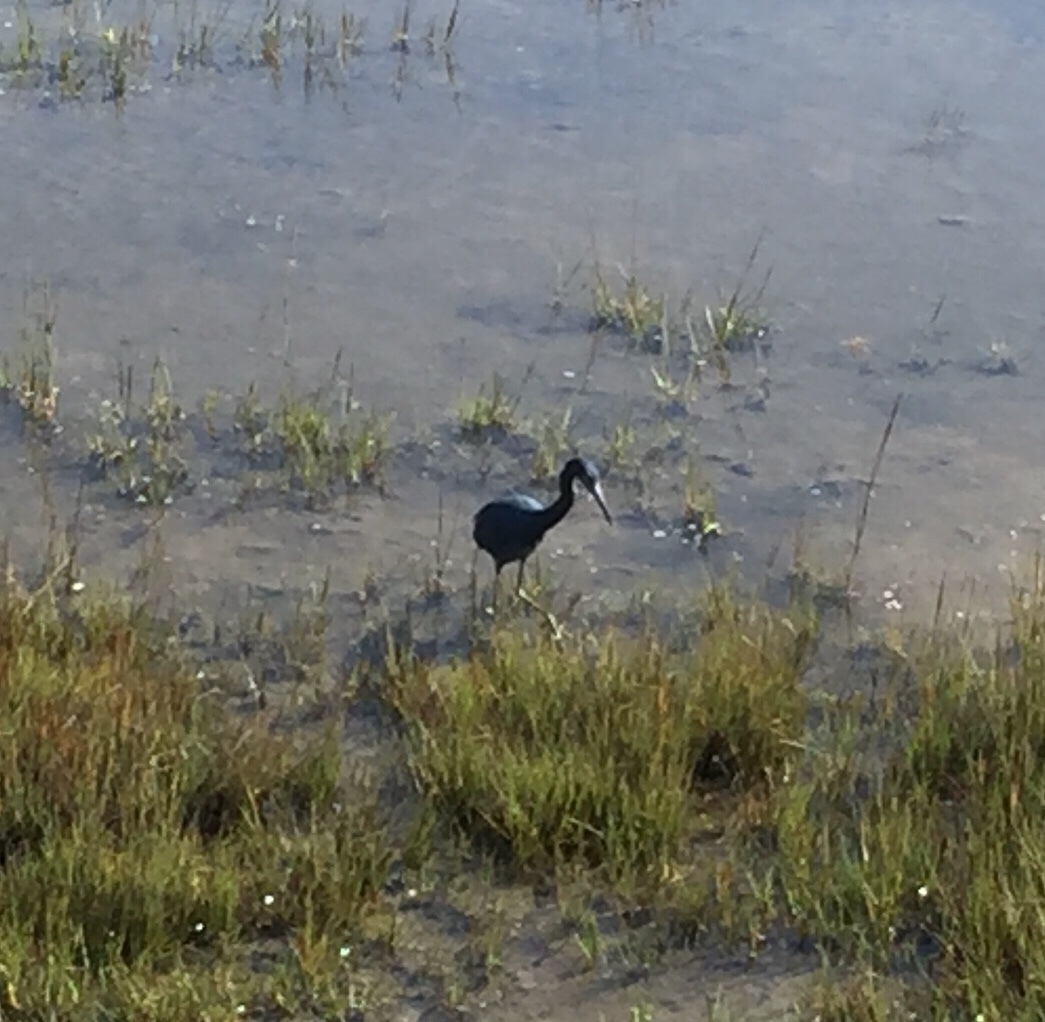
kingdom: Animalia
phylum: Chordata
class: Aves
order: Pelecaniformes
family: Ardeidae
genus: Egretta
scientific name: Egretta caerulea
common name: Little blue heron
